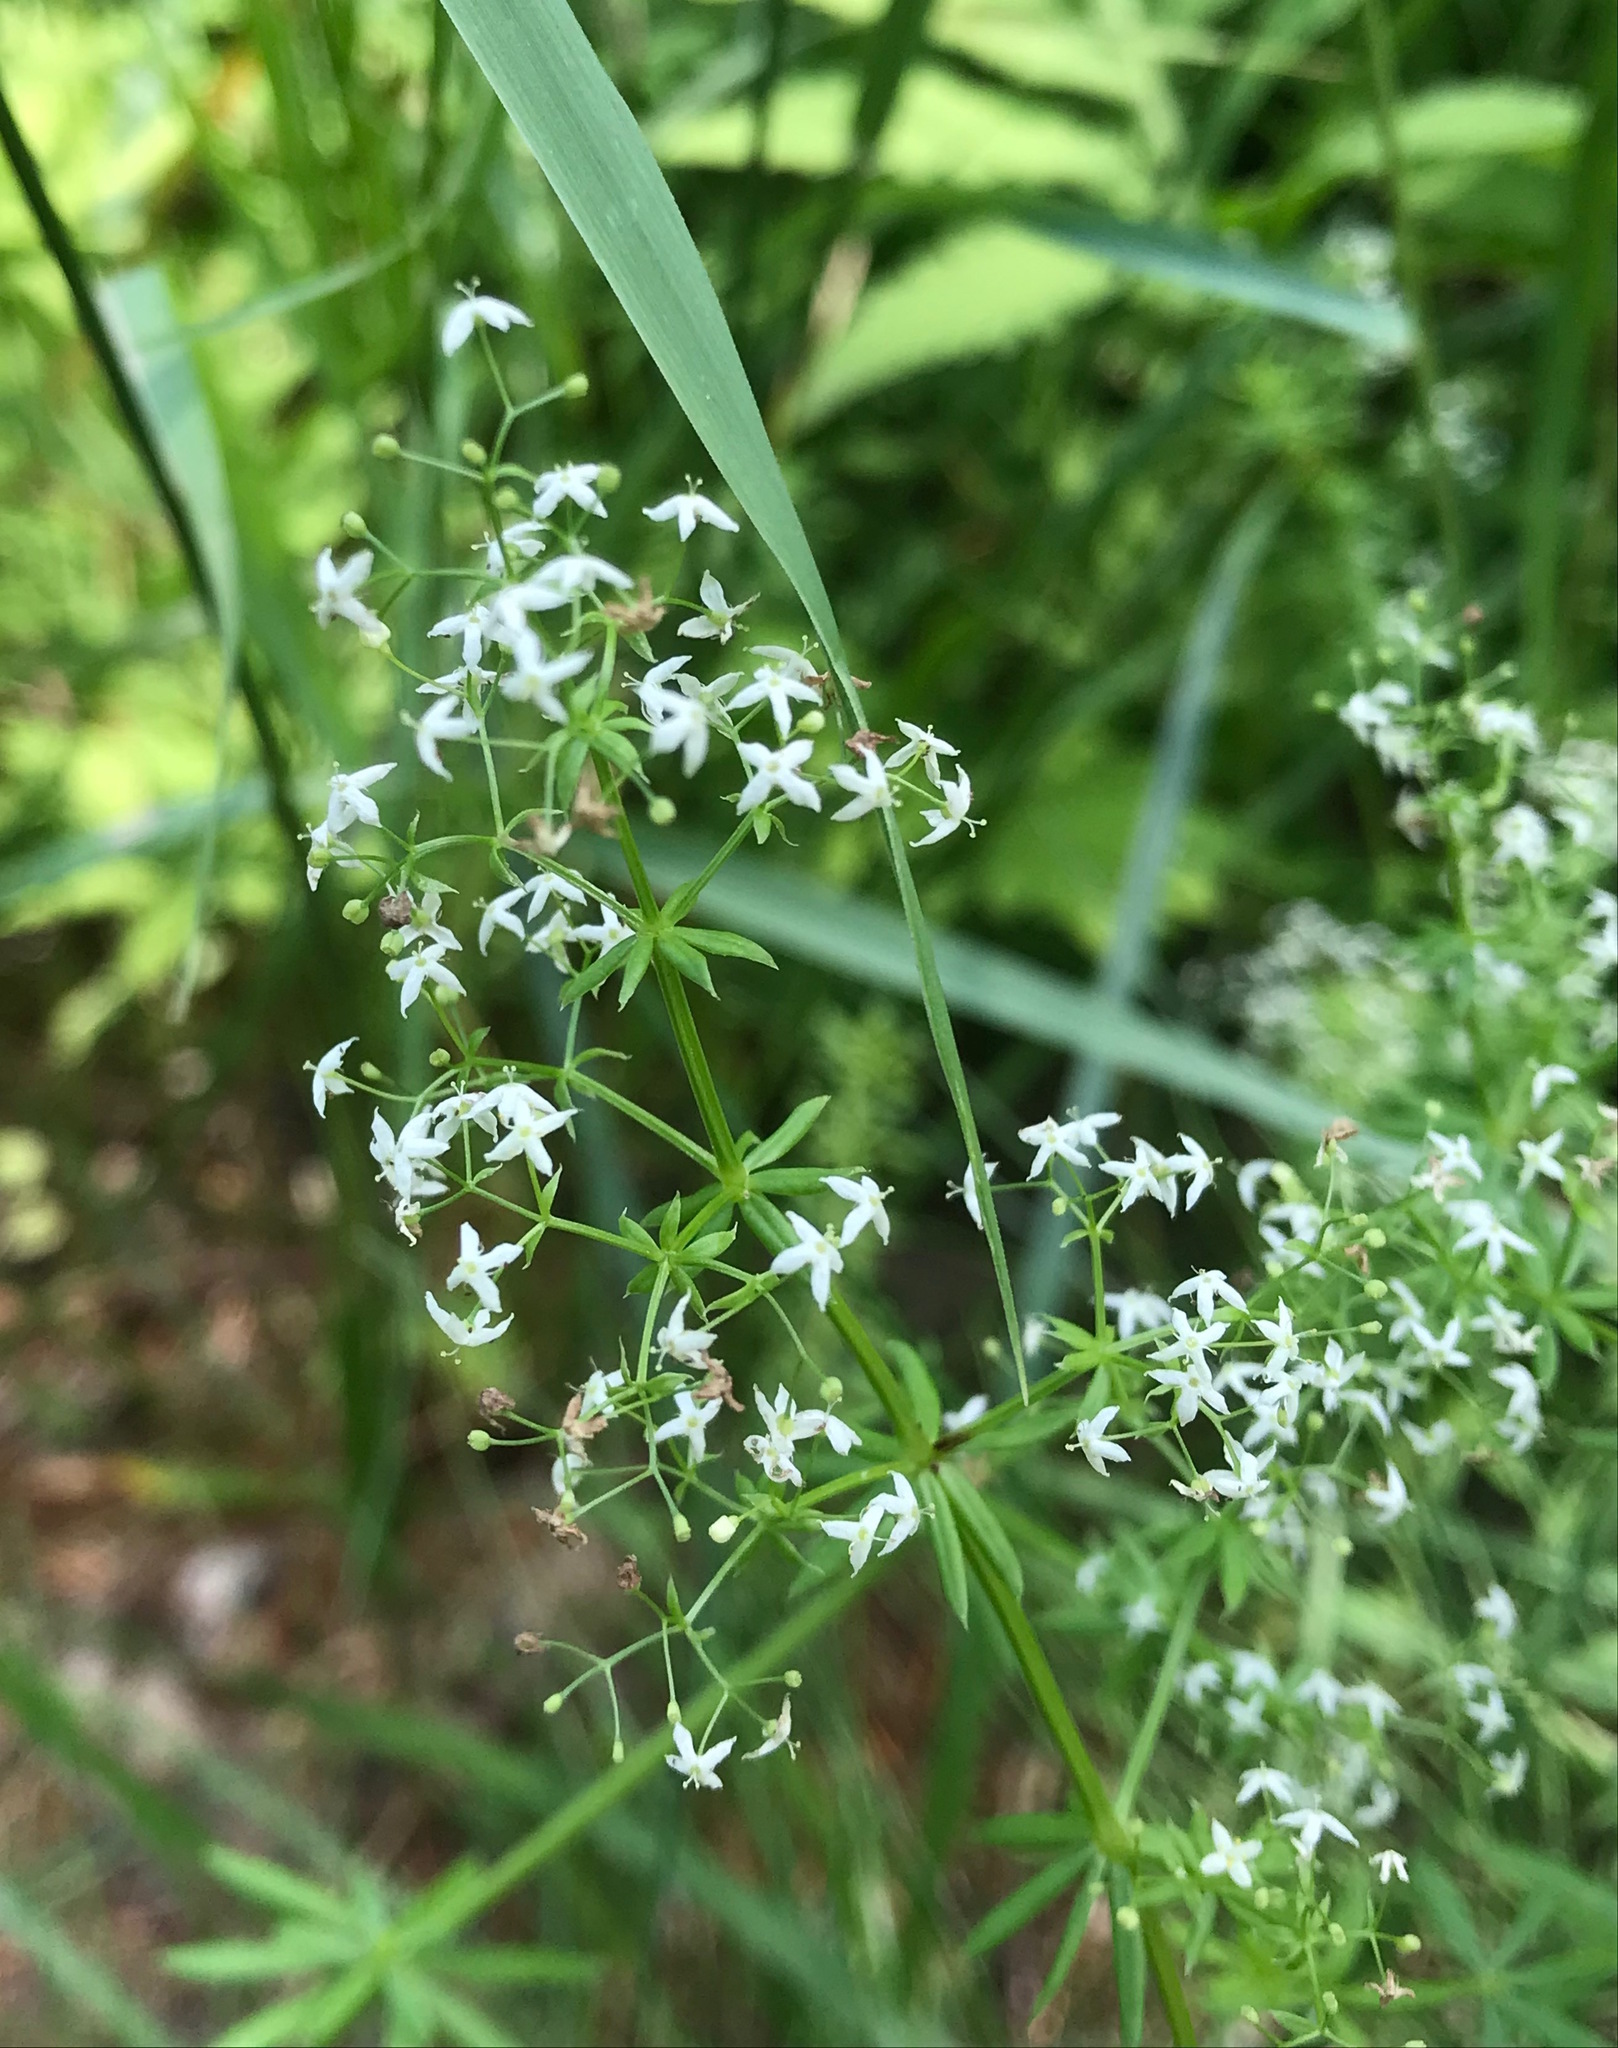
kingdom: Plantae
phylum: Tracheophyta
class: Magnoliopsida
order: Gentianales
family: Rubiaceae
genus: Galium
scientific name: Galium mollugo
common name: Hedge bedstraw
